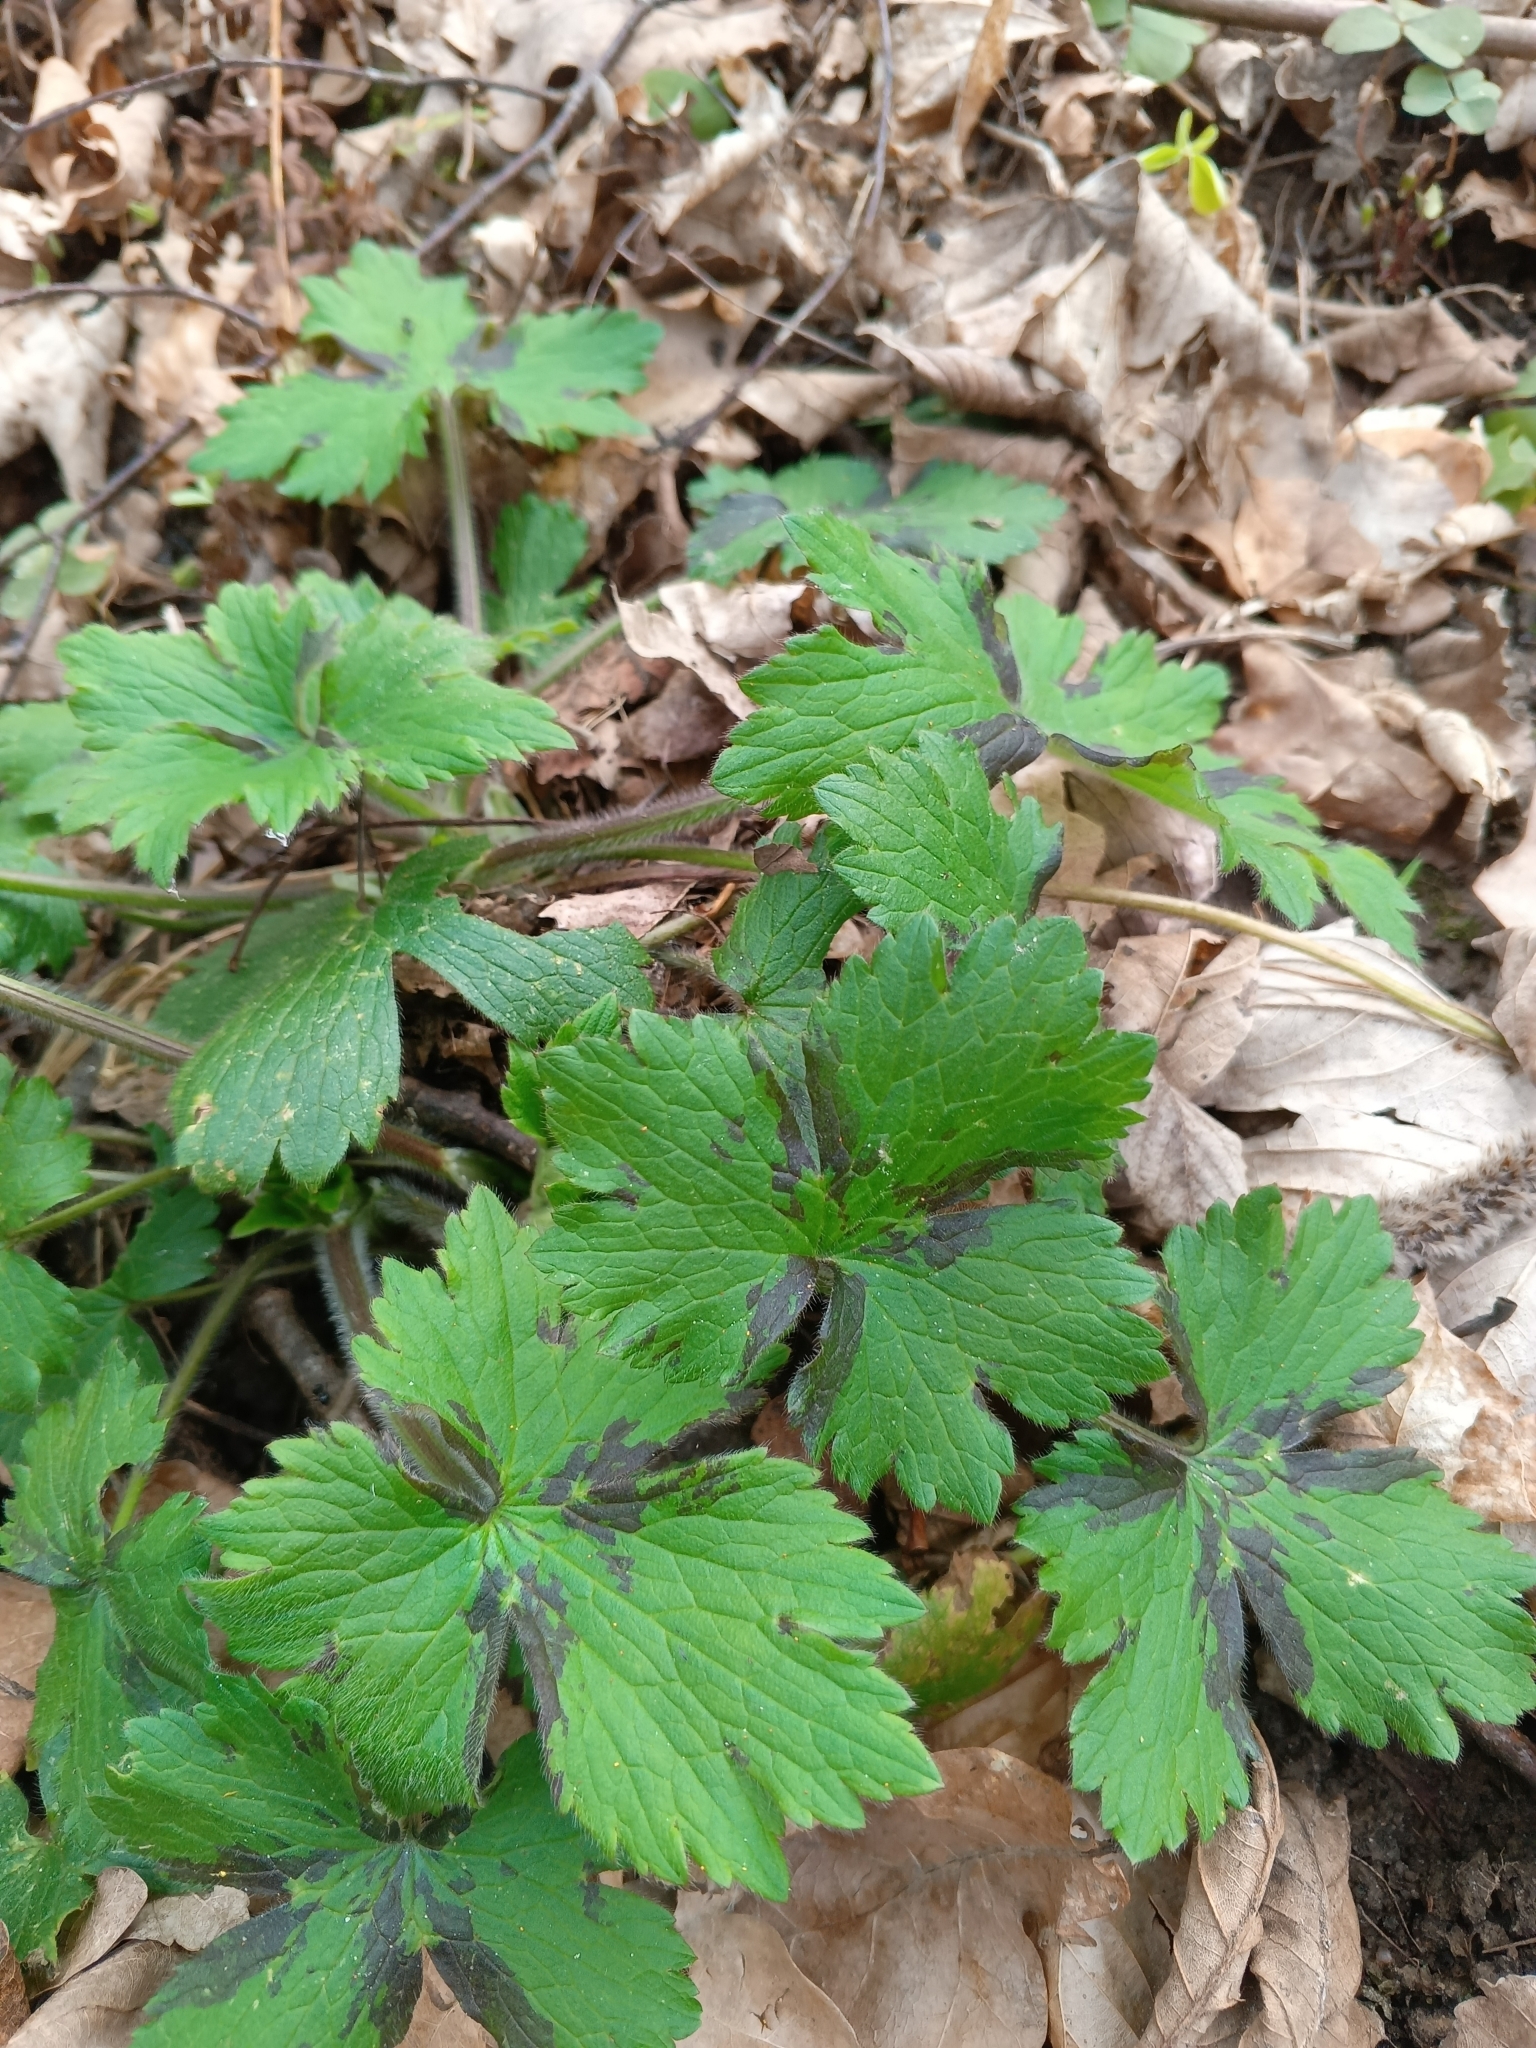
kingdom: Plantae
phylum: Tracheophyta
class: Magnoliopsida
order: Ranunculales
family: Ranunculaceae
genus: Ranunculus
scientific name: Ranunculus lanuginosus
